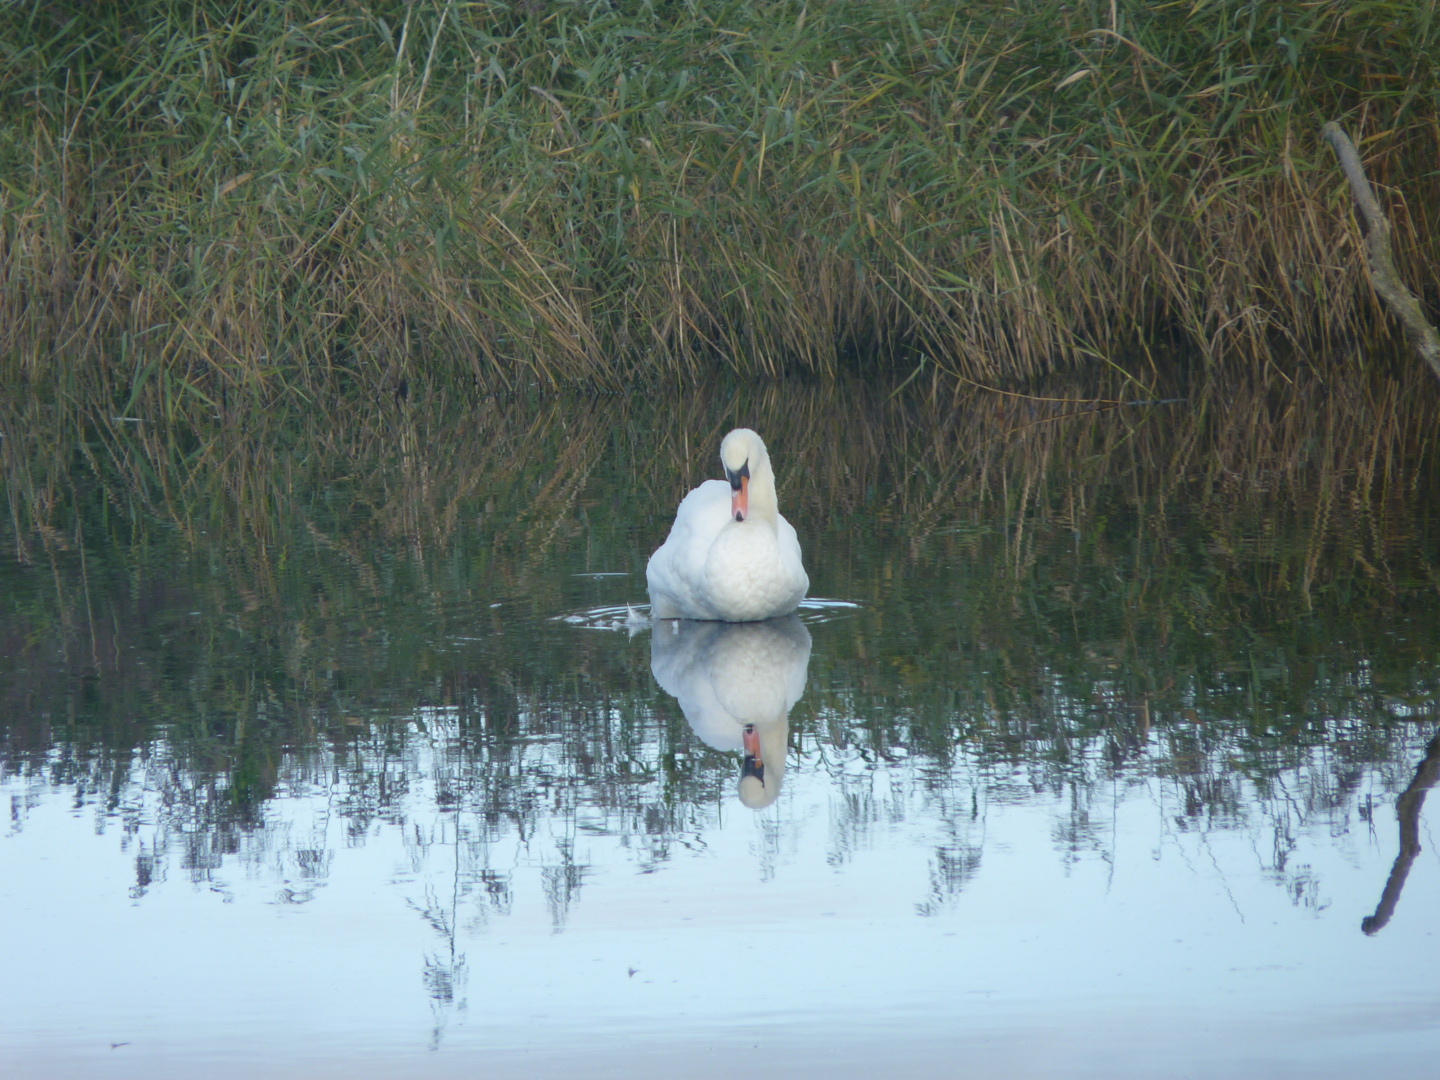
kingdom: Animalia
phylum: Chordata
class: Aves
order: Anseriformes
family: Anatidae
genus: Cygnus
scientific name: Cygnus olor
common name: Mute swan
